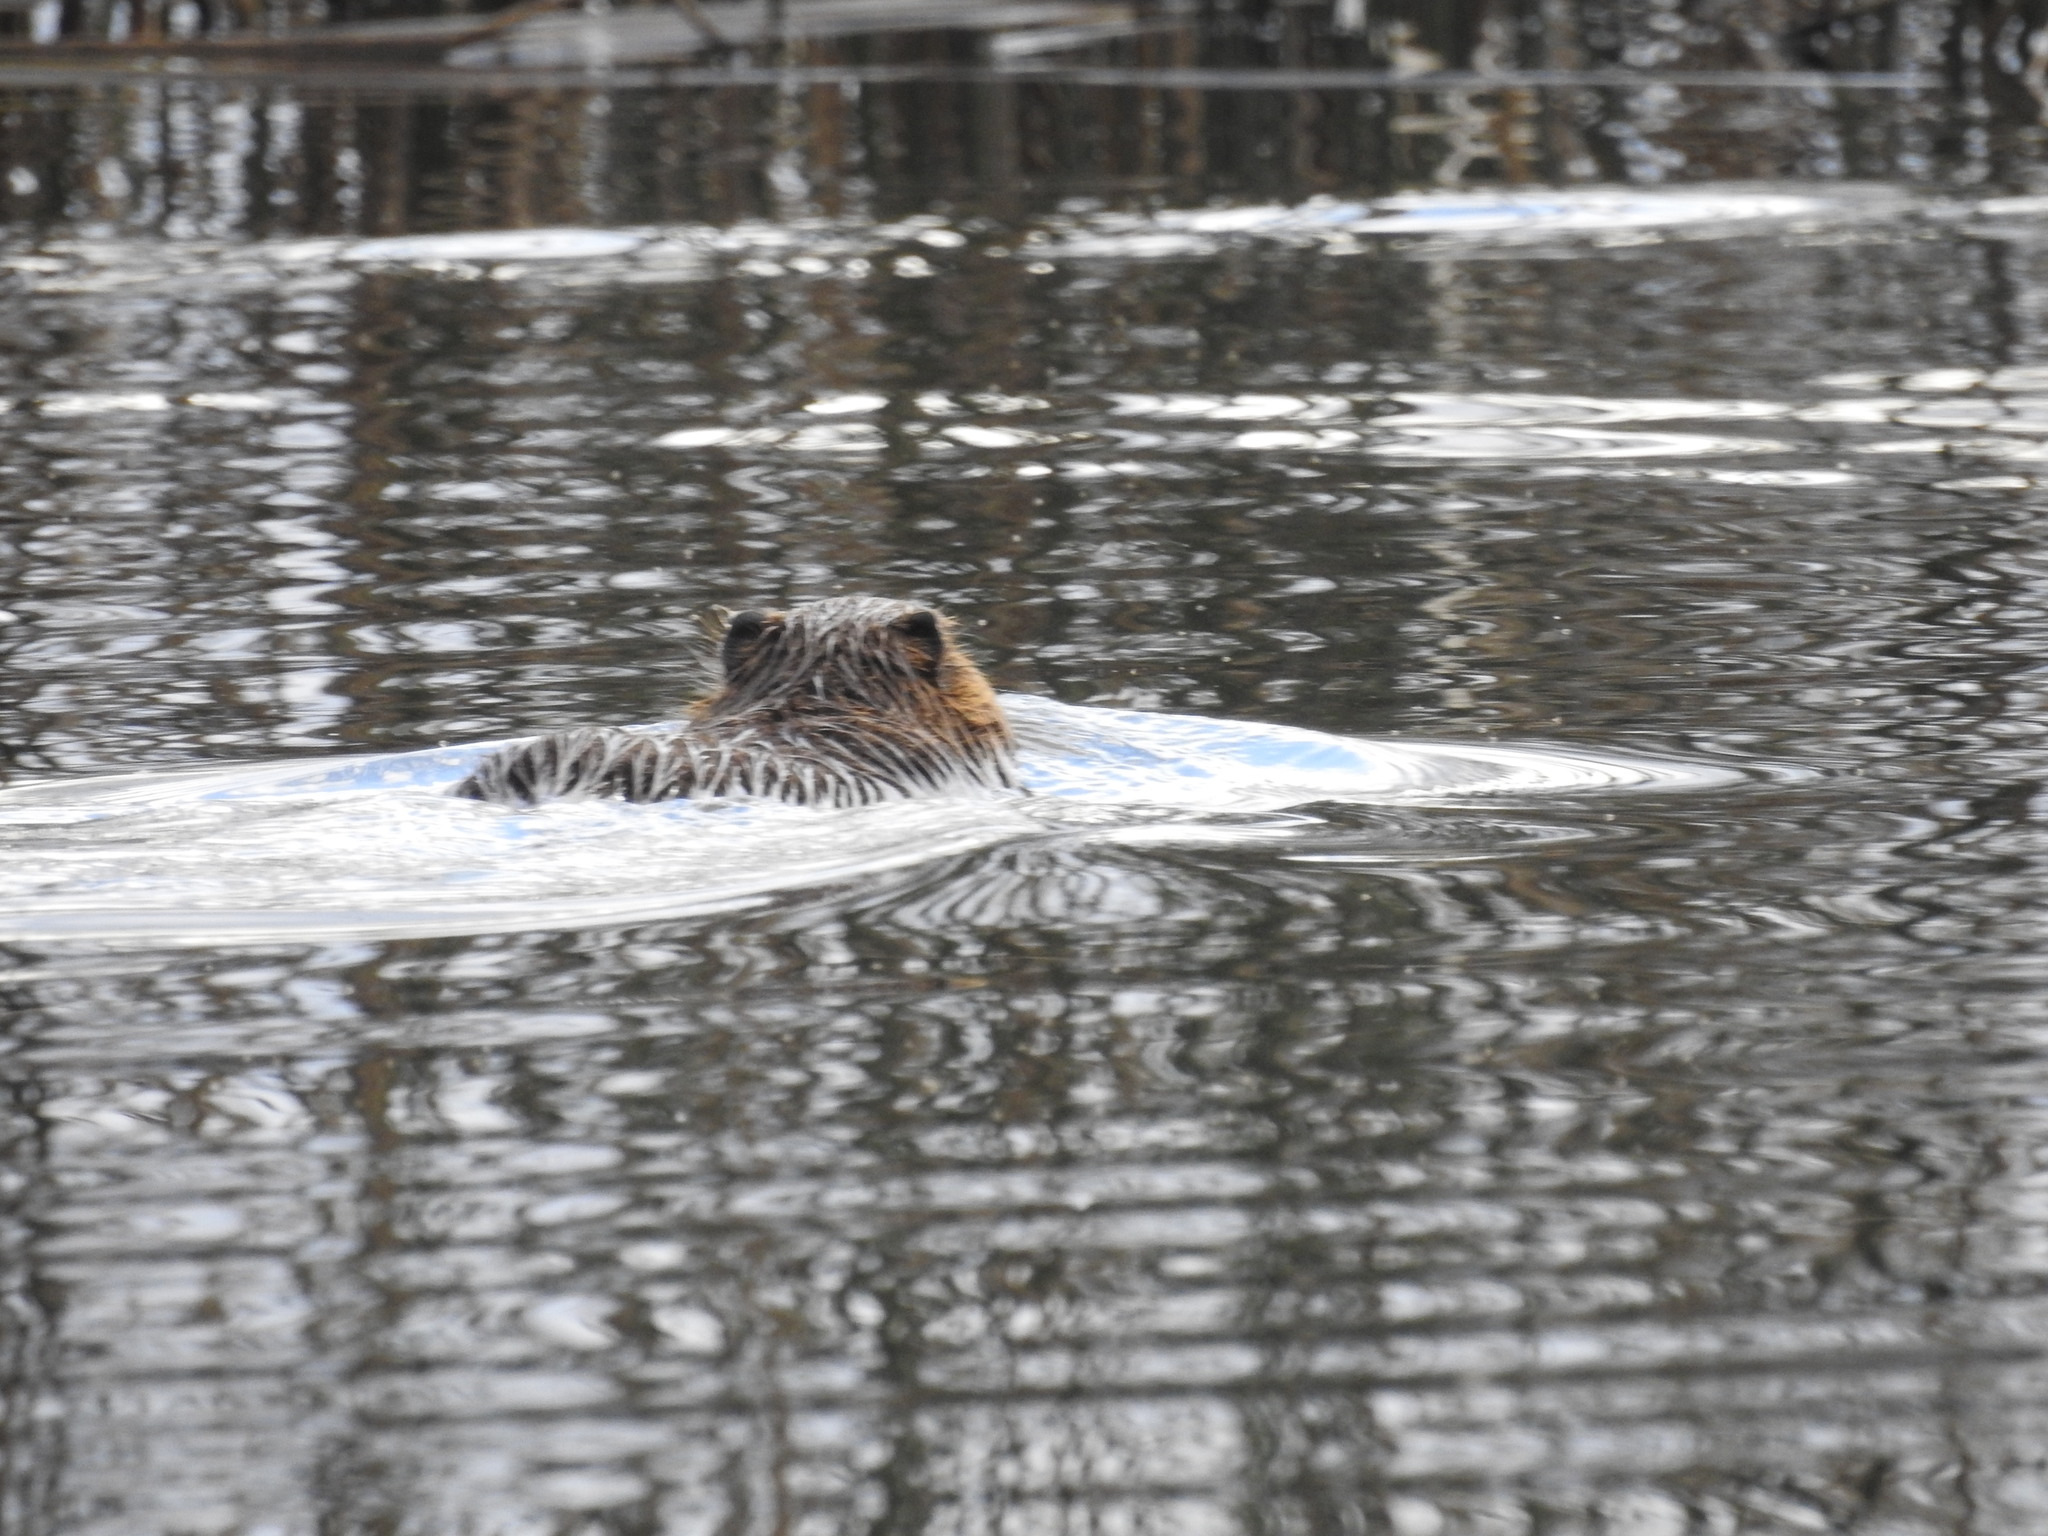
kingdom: Animalia
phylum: Chordata
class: Mammalia
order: Rodentia
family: Myocastoridae
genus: Myocastor
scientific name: Myocastor coypus
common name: Coypu
